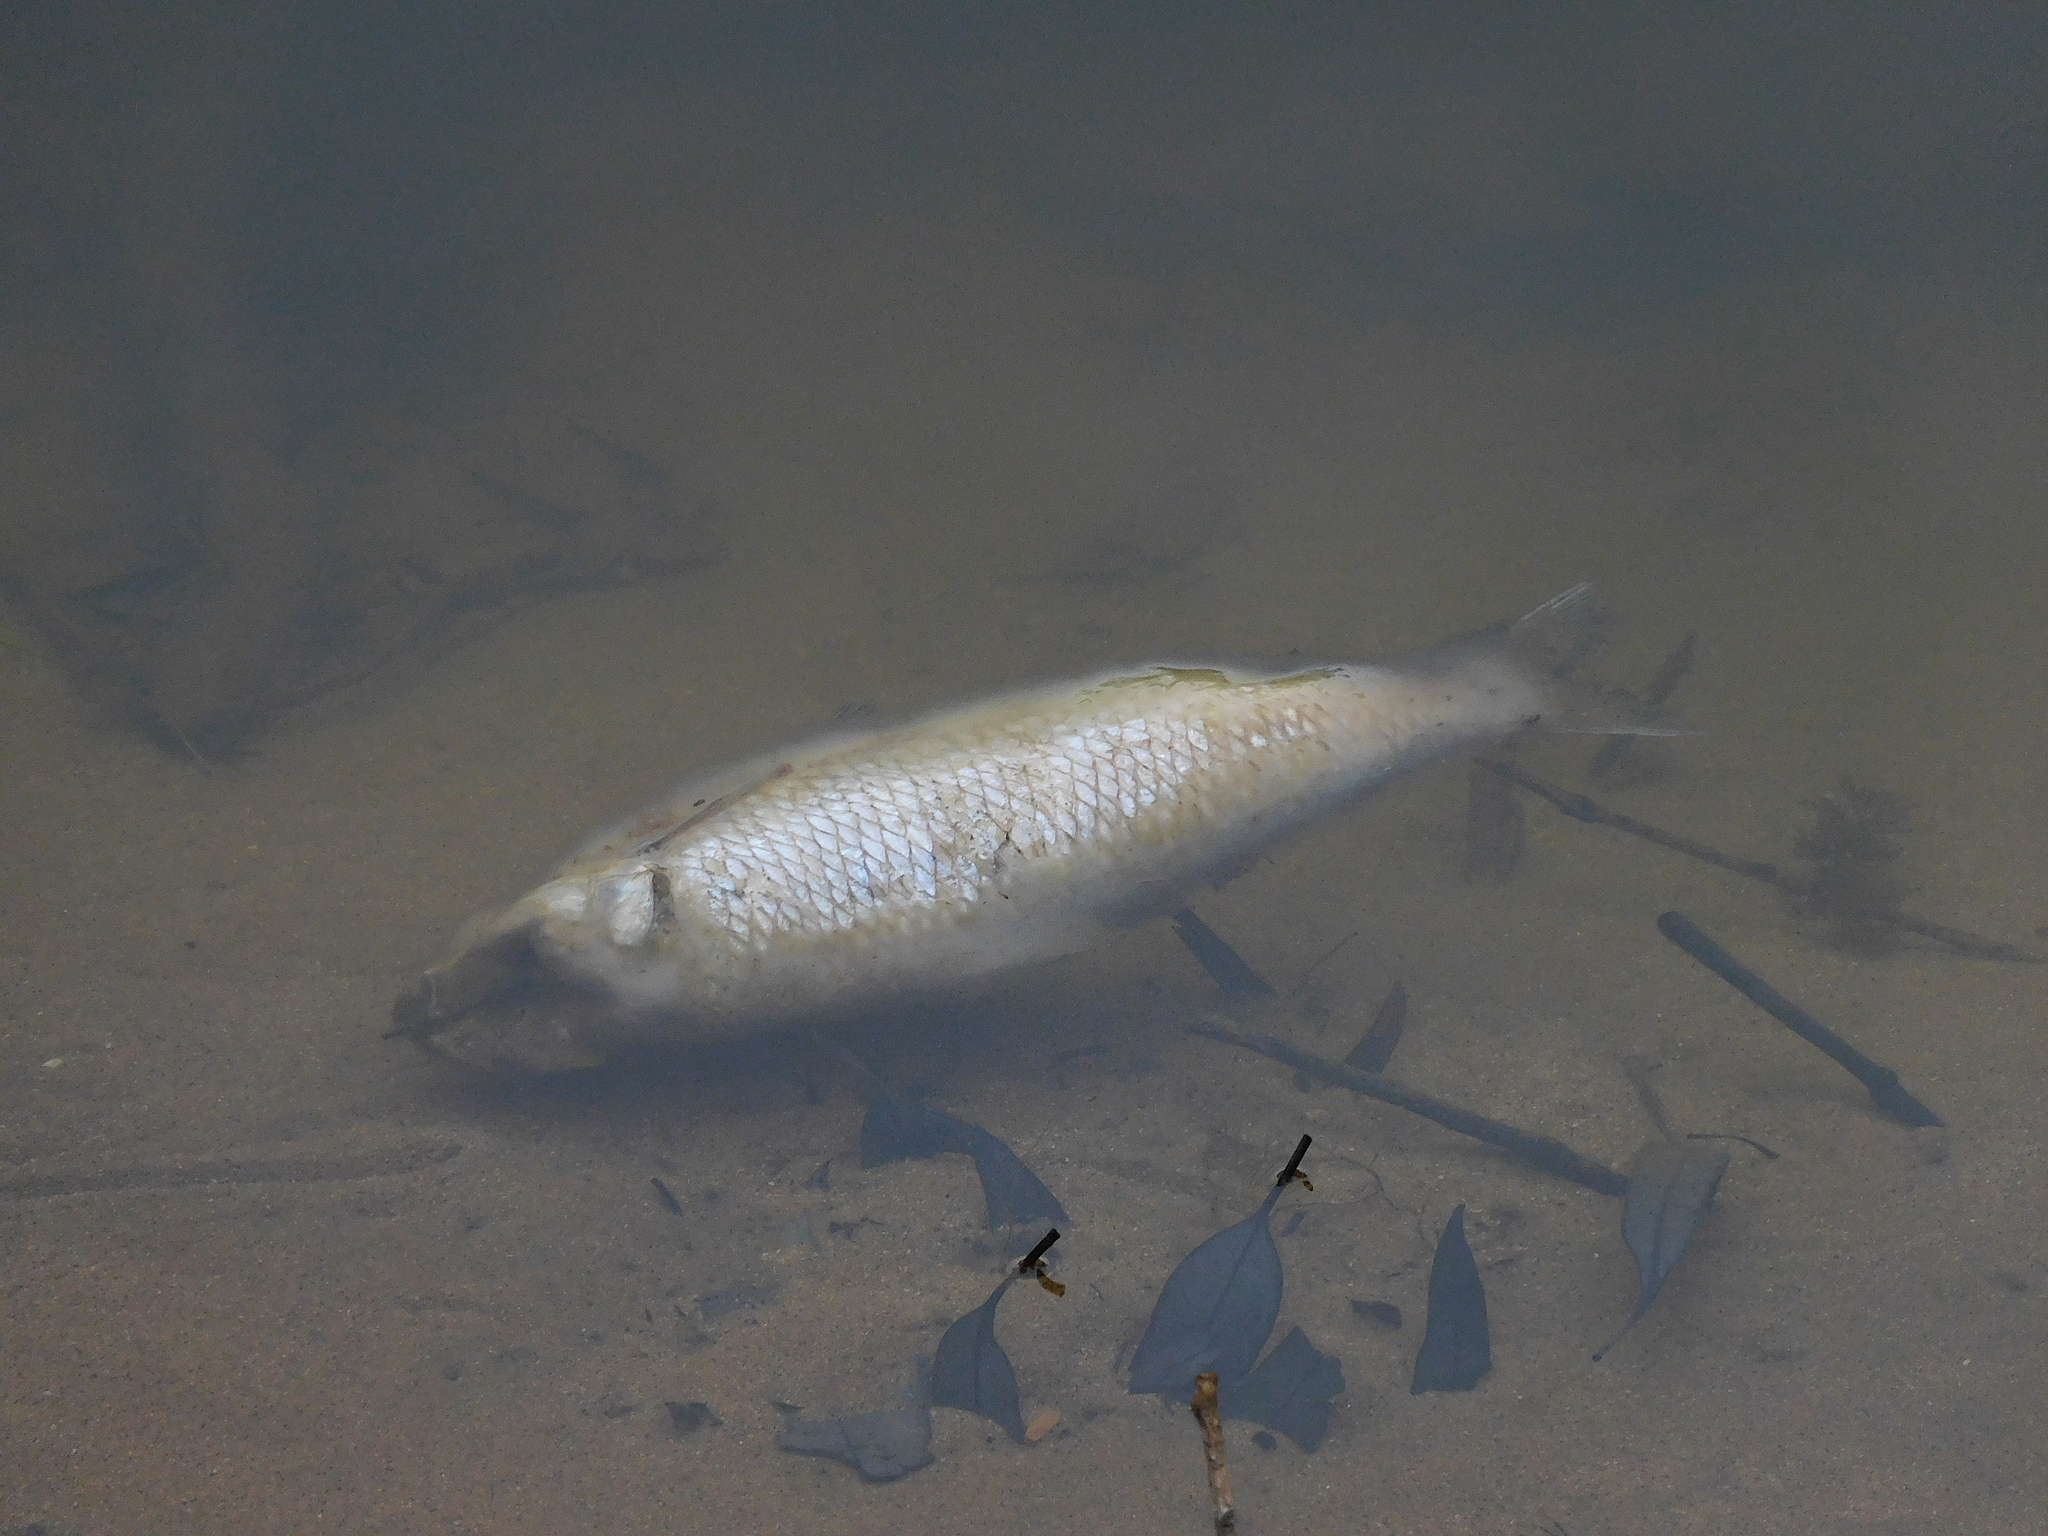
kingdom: Animalia
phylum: Chordata
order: Clupeiformes
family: Clupeidae
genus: Nematalosa
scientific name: Nematalosa erebi
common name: Australian river gizzard shad
